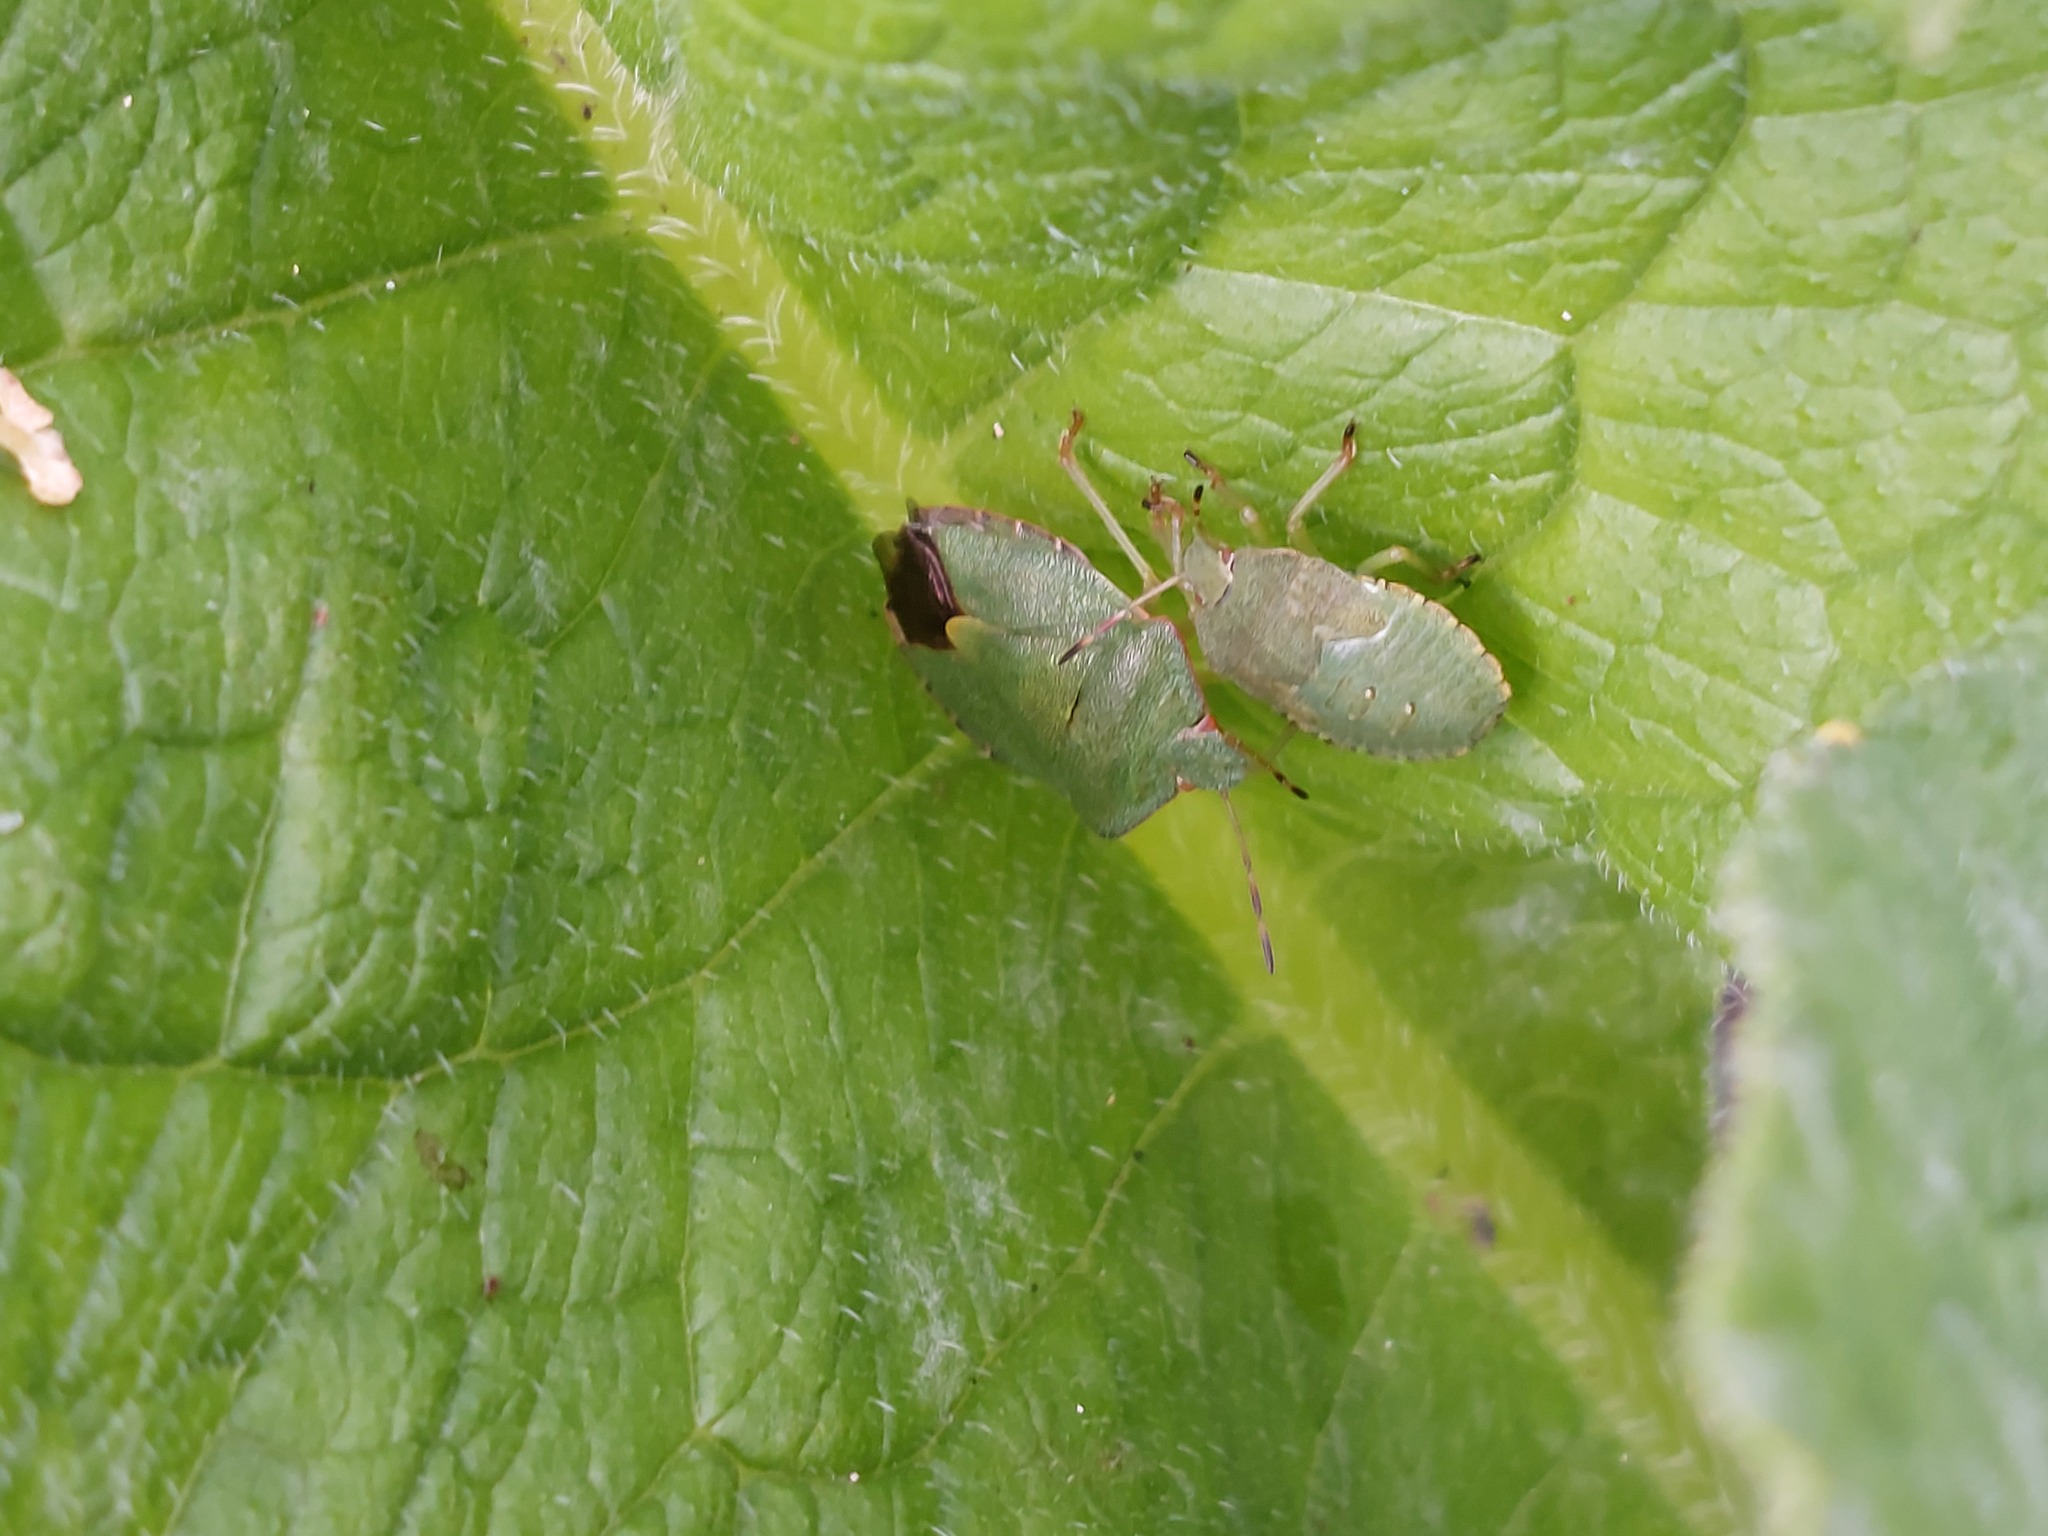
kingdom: Animalia
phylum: Arthropoda
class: Insecta
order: Hemiptera
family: Pentatomidae
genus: Palomena
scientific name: Palomena prasina
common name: Green shieldbug
